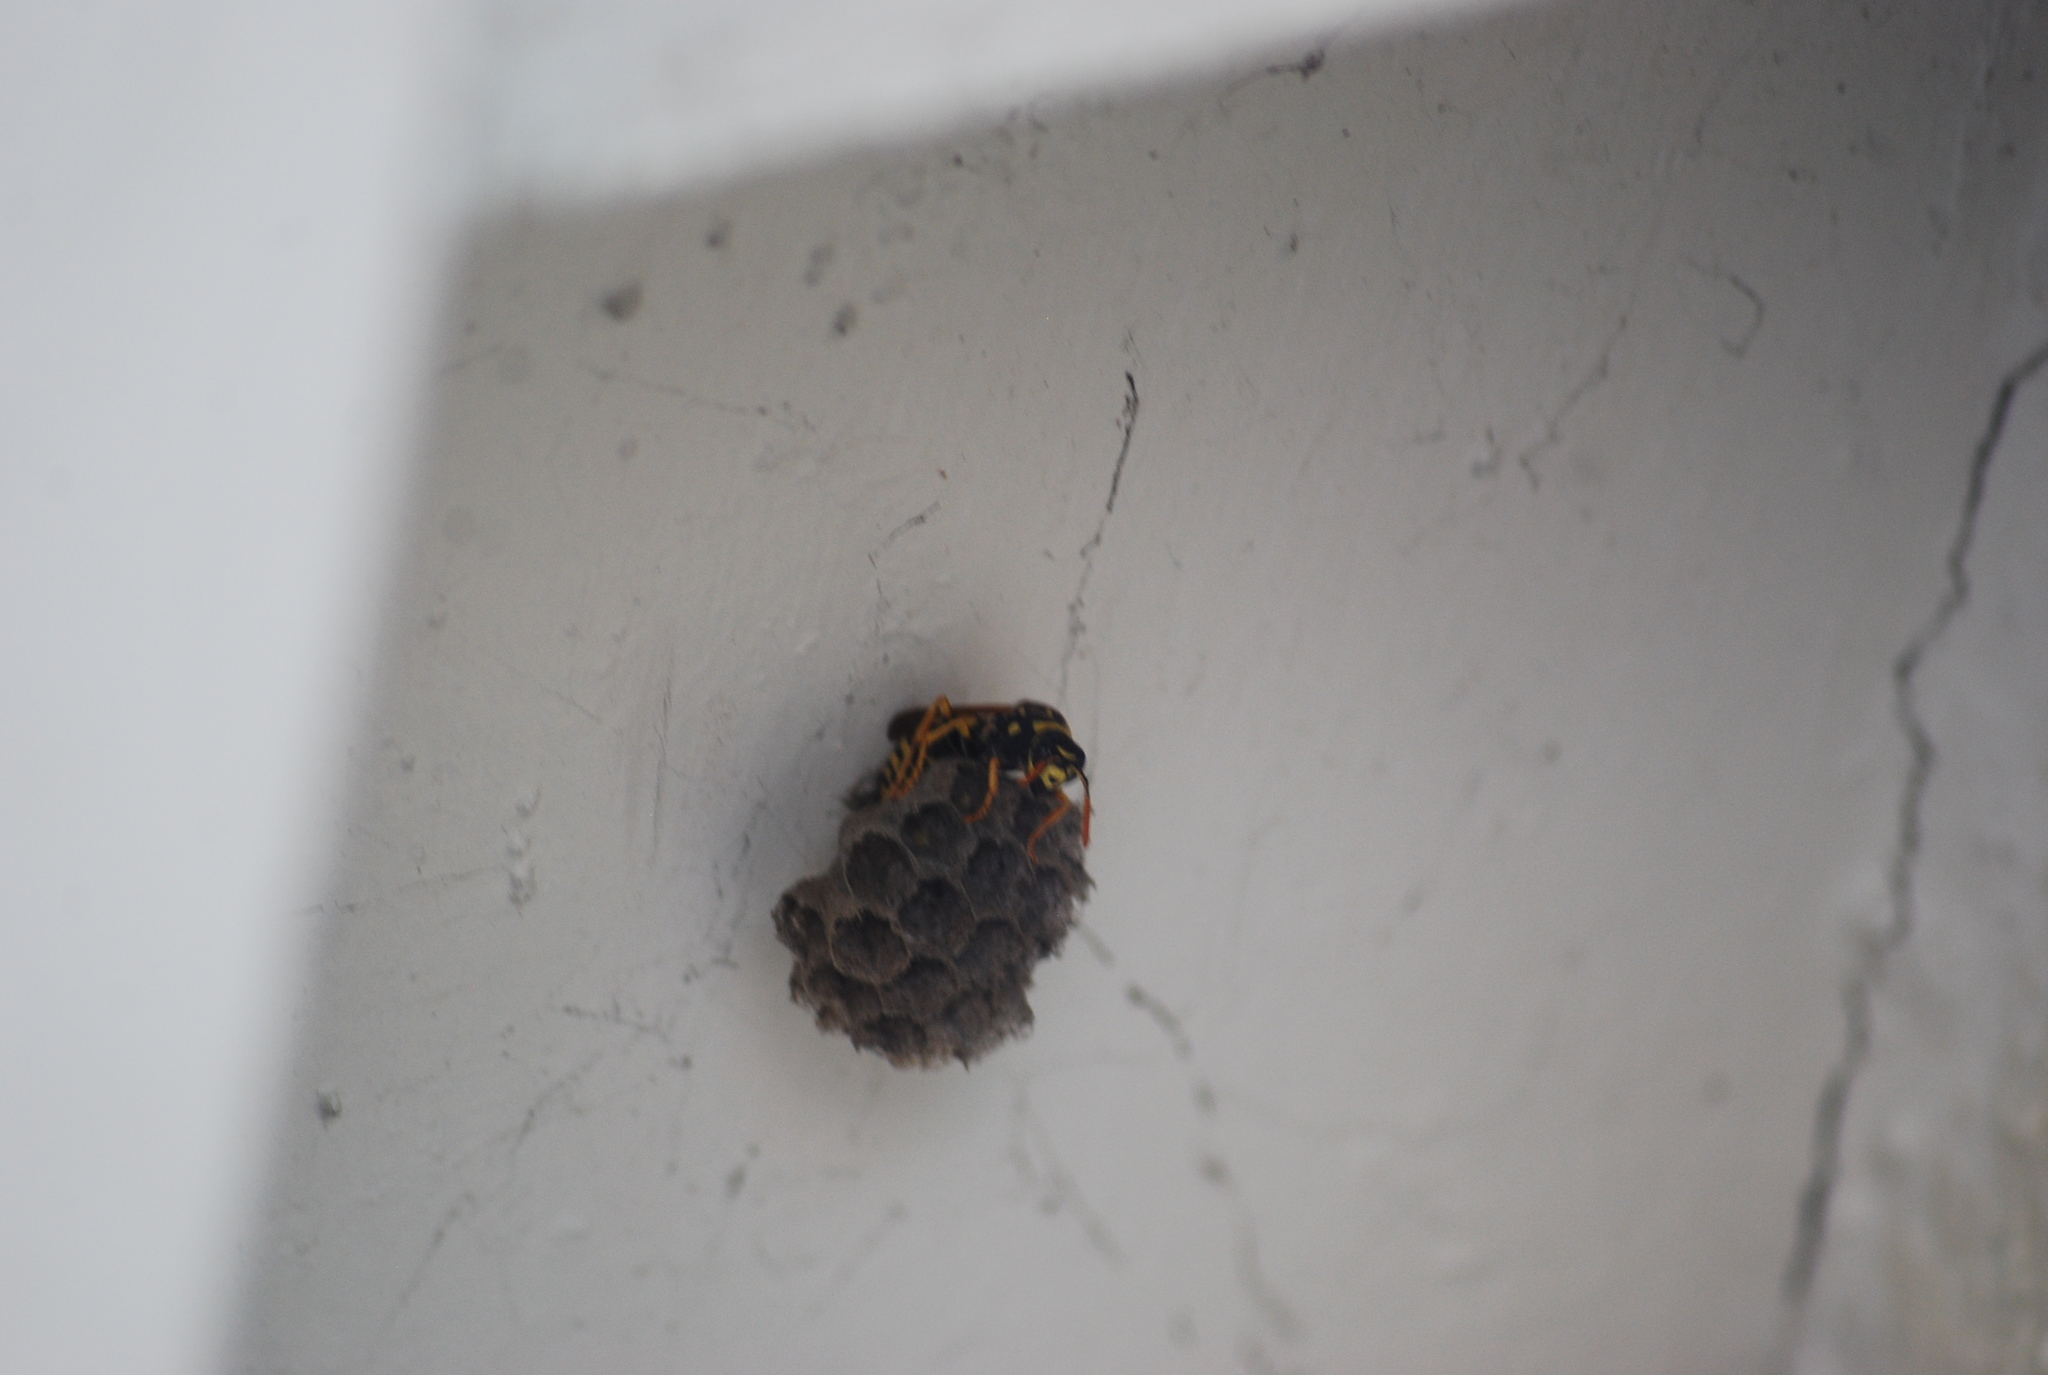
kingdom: Animalia
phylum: Arthropoda
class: Insecta
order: Hymenoptera
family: Eumenidae
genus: Polistes
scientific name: Polistes dominula
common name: Paper wasp
